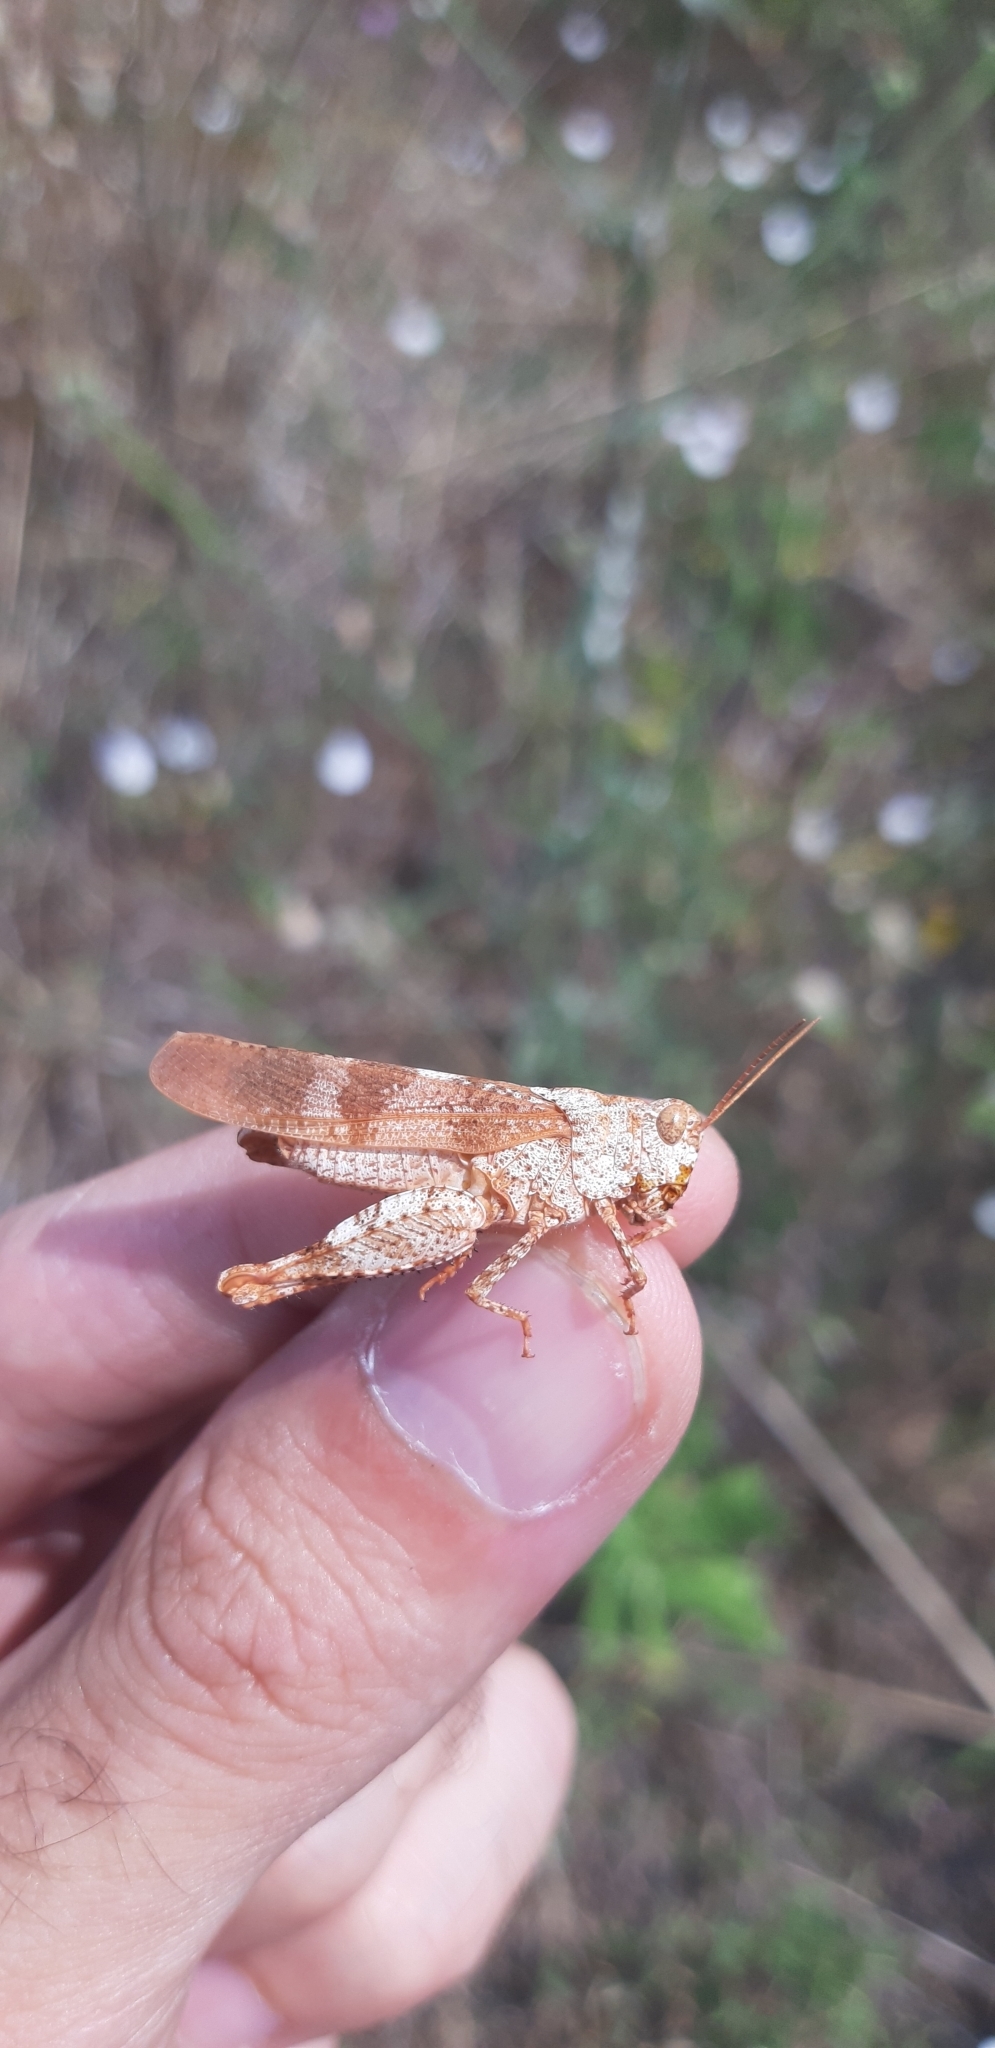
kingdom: Animalia
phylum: Arthropoda
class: Insecta
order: Orthoptera
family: Acrididae
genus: Oedipoda
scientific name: Oedipoda germanica
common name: Red band-winged grasshopper
